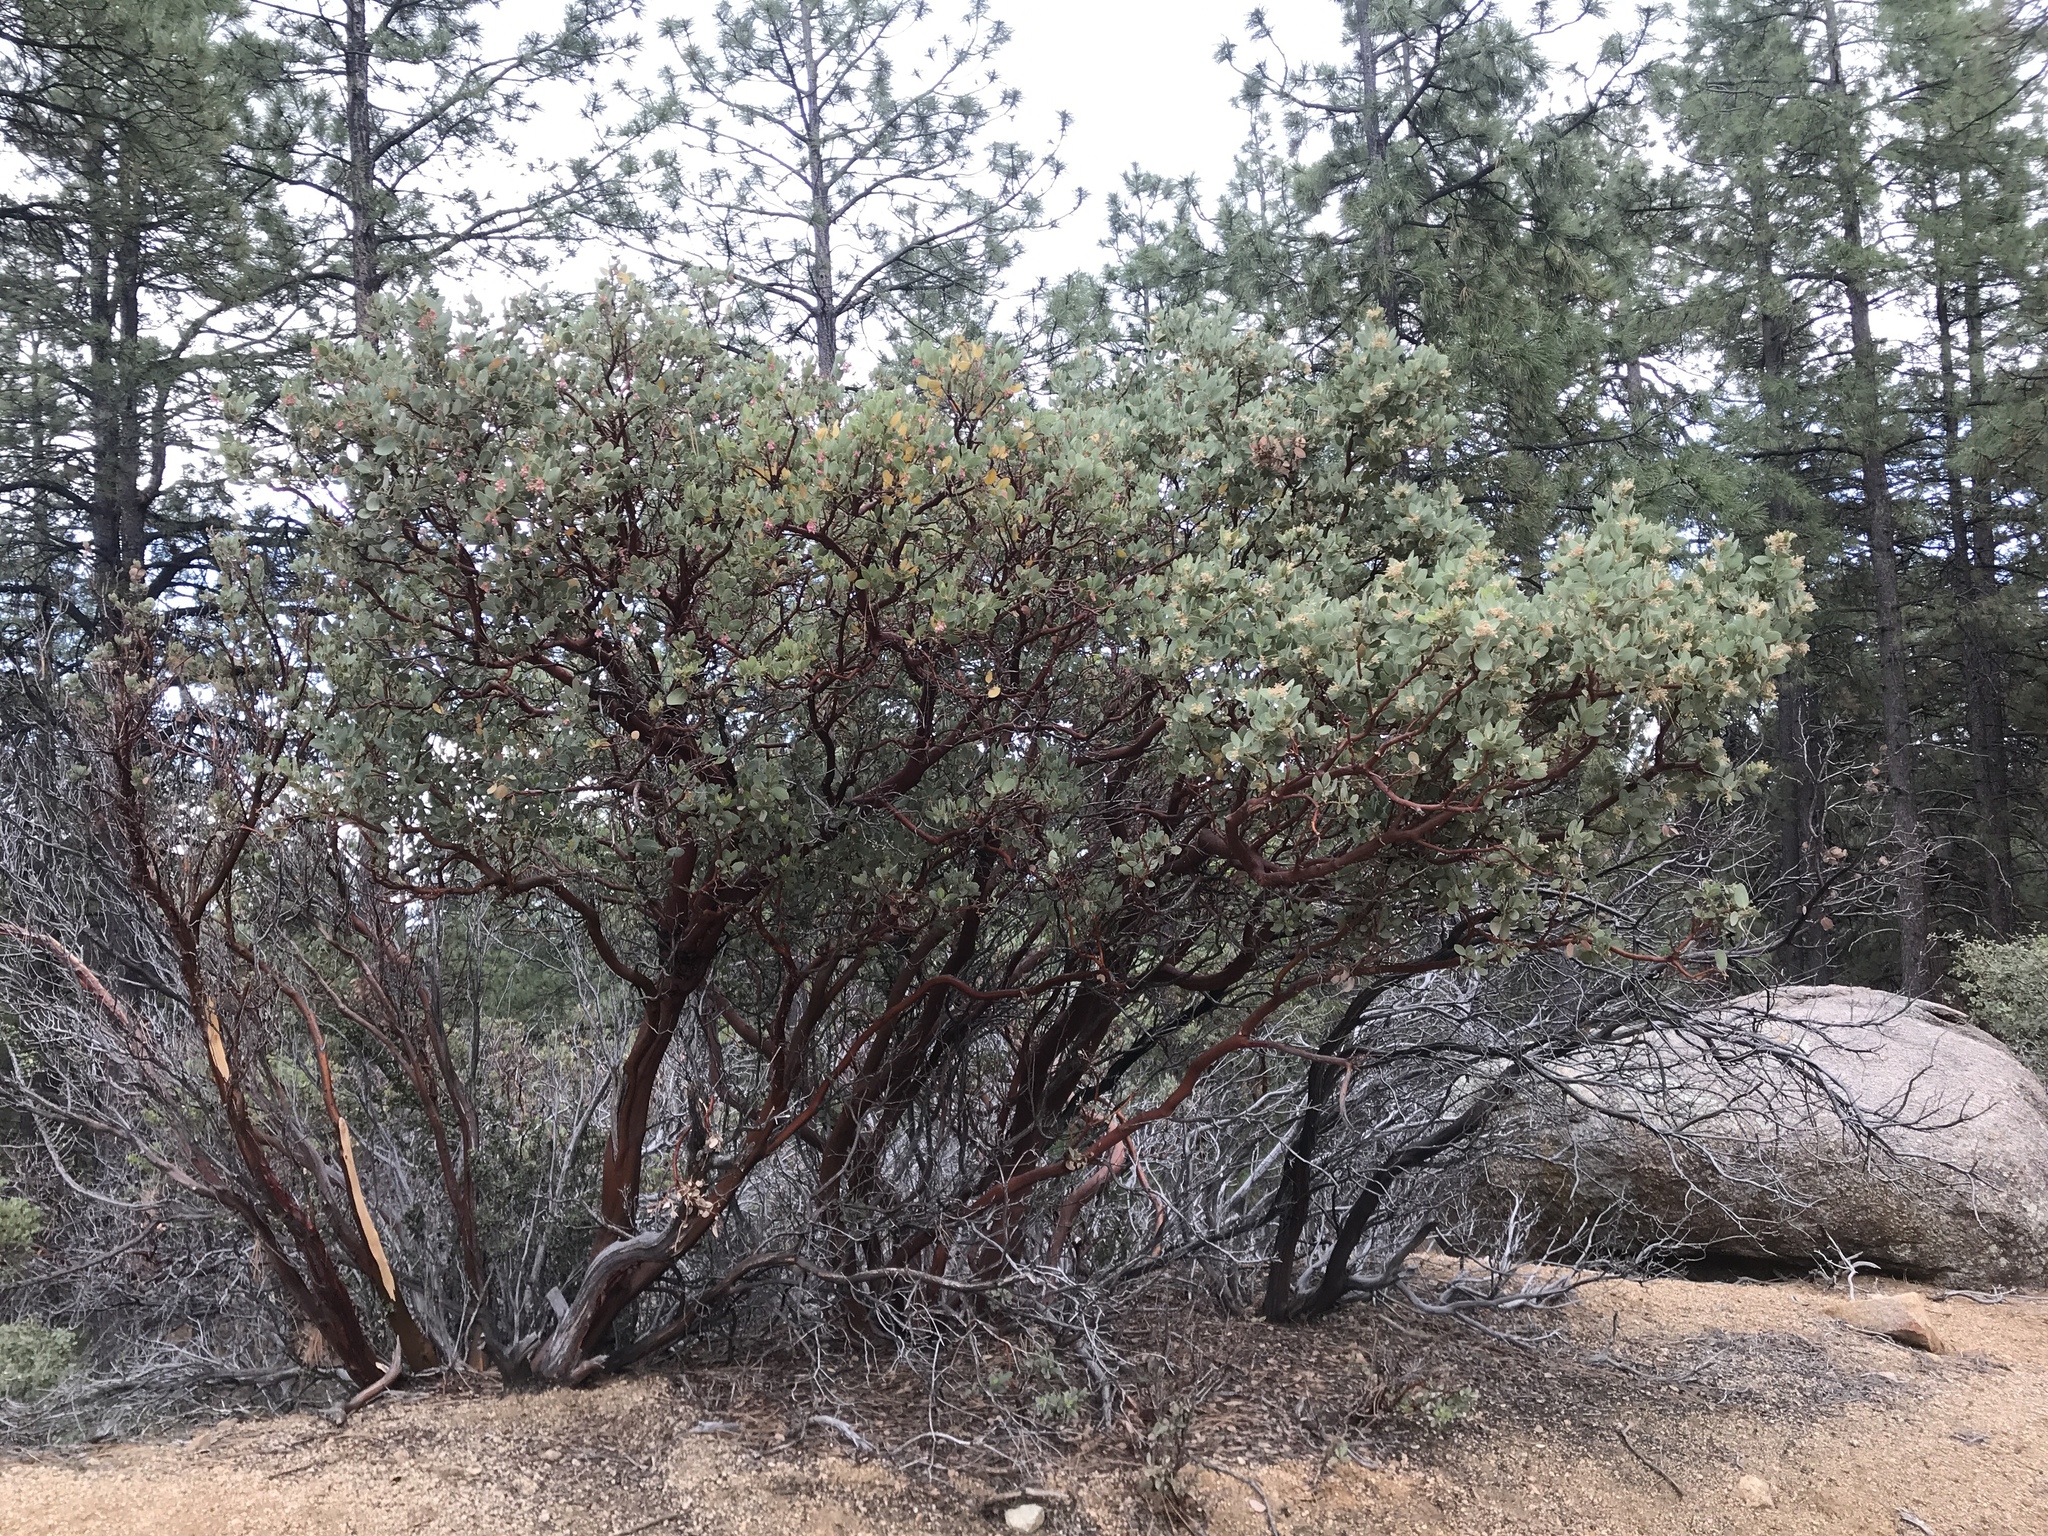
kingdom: Plantae
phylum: Tracheophyta
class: Magnoliopsida
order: Ericales
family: Ericaceae
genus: Arctostaphylos
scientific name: Arctostaphylos pringlei
